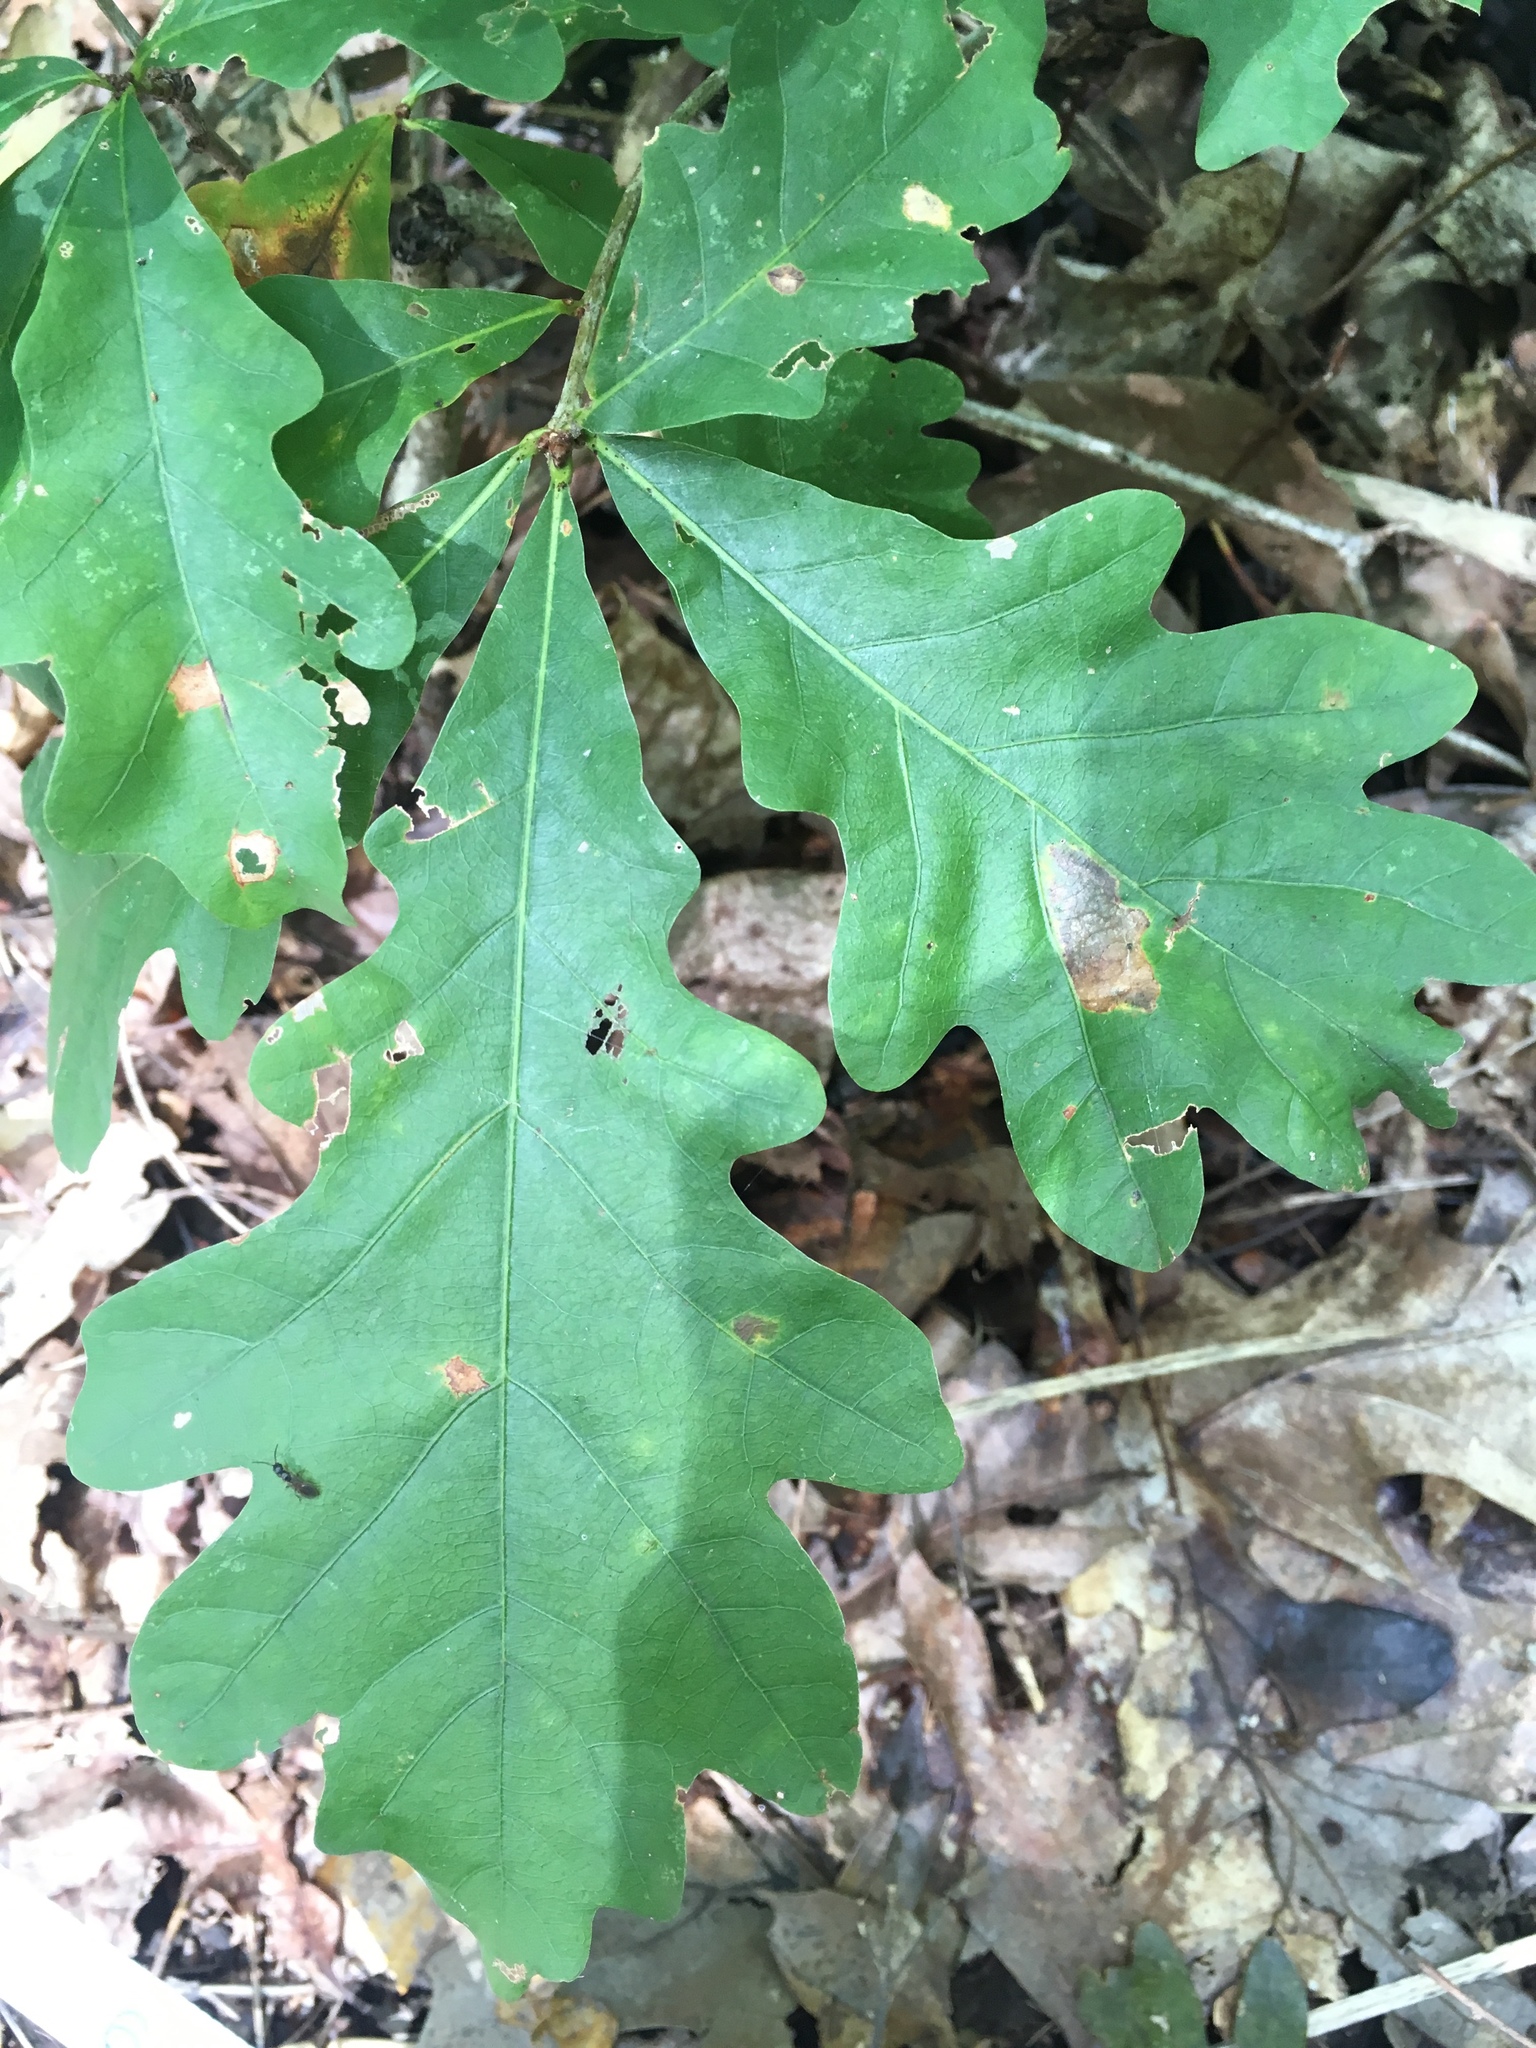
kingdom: Plantae
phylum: Tracheophyta
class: Magnoliopsida
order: Fagales
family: Fagaceae
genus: Quercus
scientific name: Quercus alba
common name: White oak
